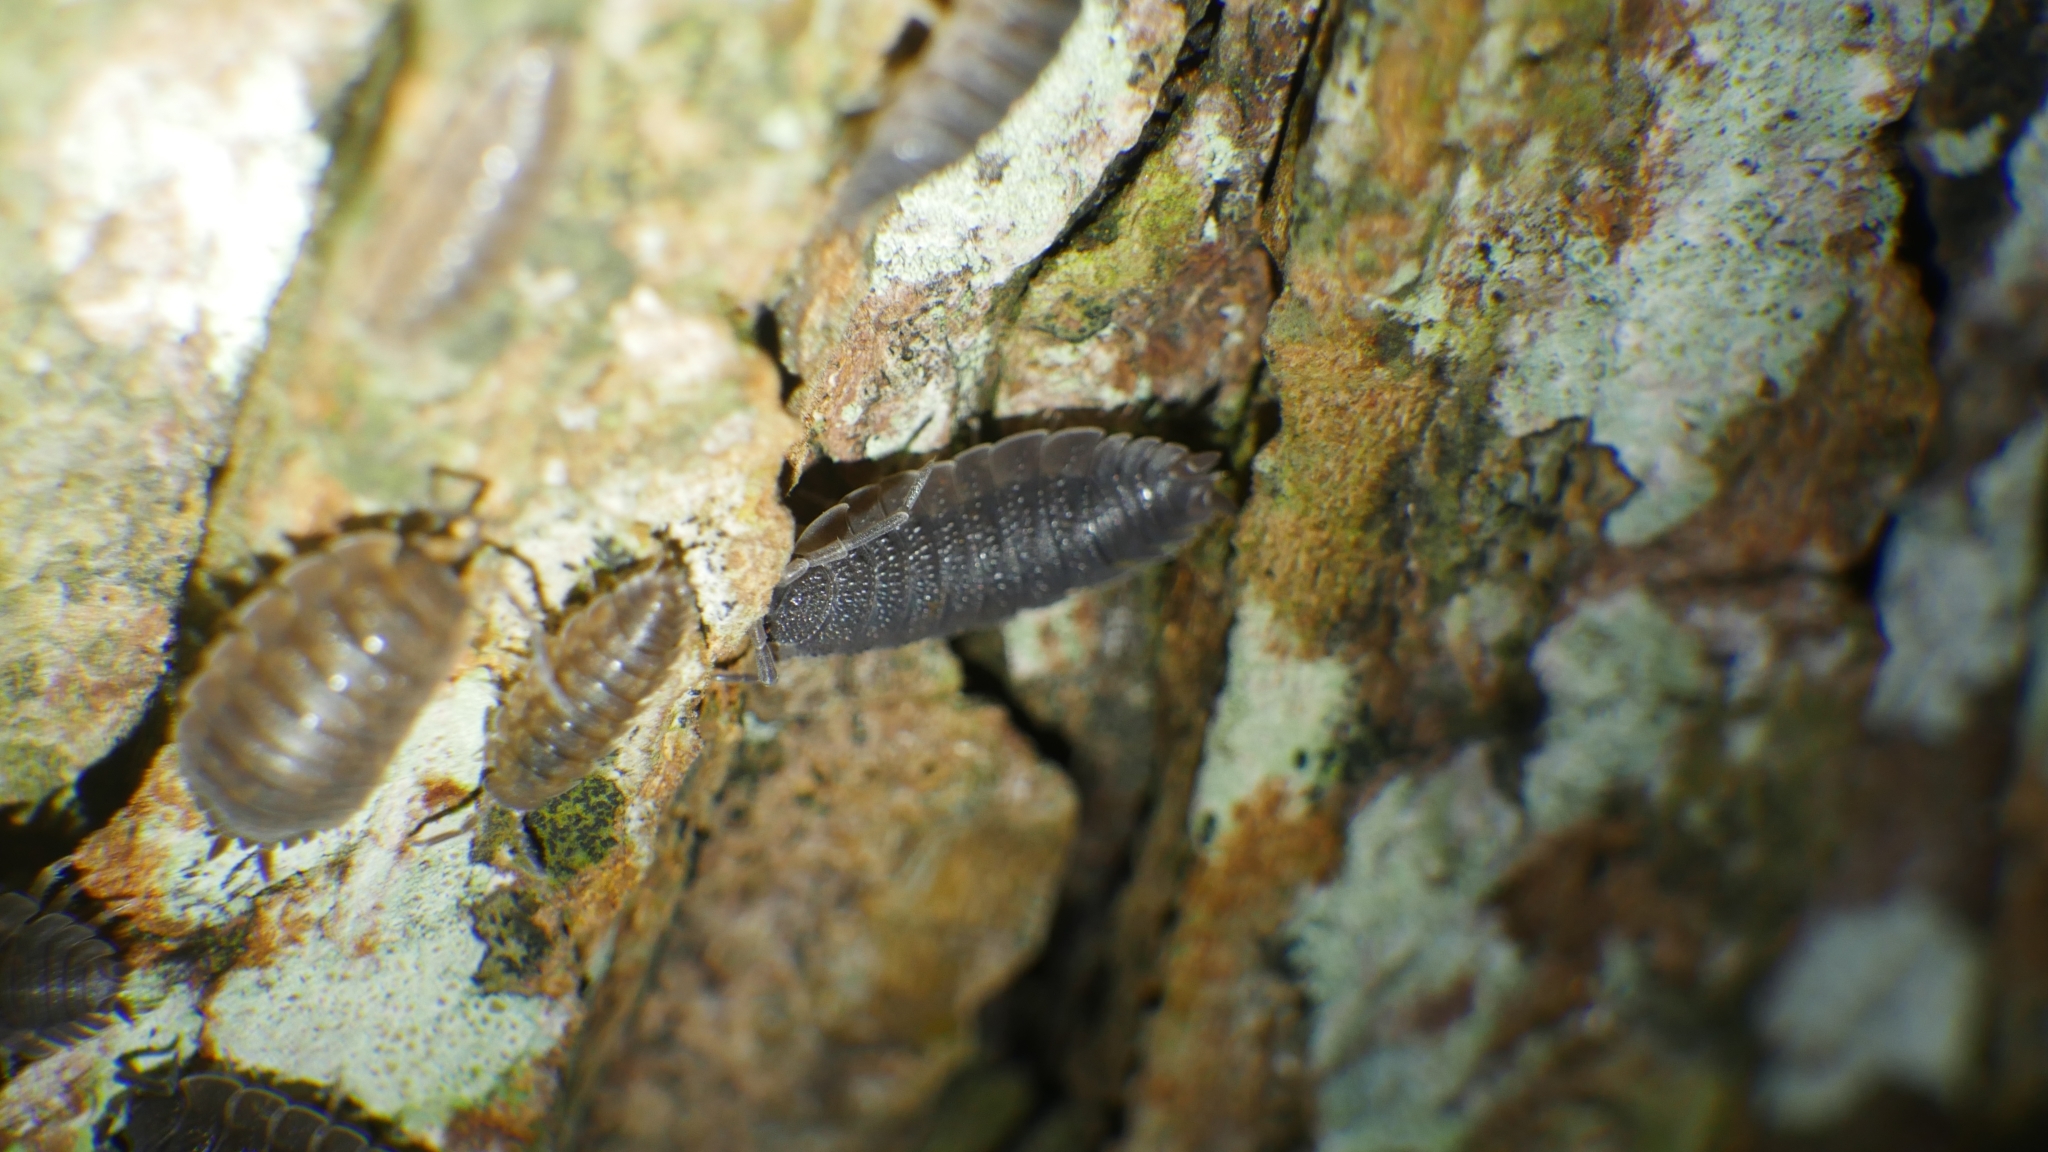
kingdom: Animalia
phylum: Arthropoda
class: Malacostraca
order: Isopoda
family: Porcellionidae
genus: Porcellio
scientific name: Porcellio scaber
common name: Common rough woodlouse
